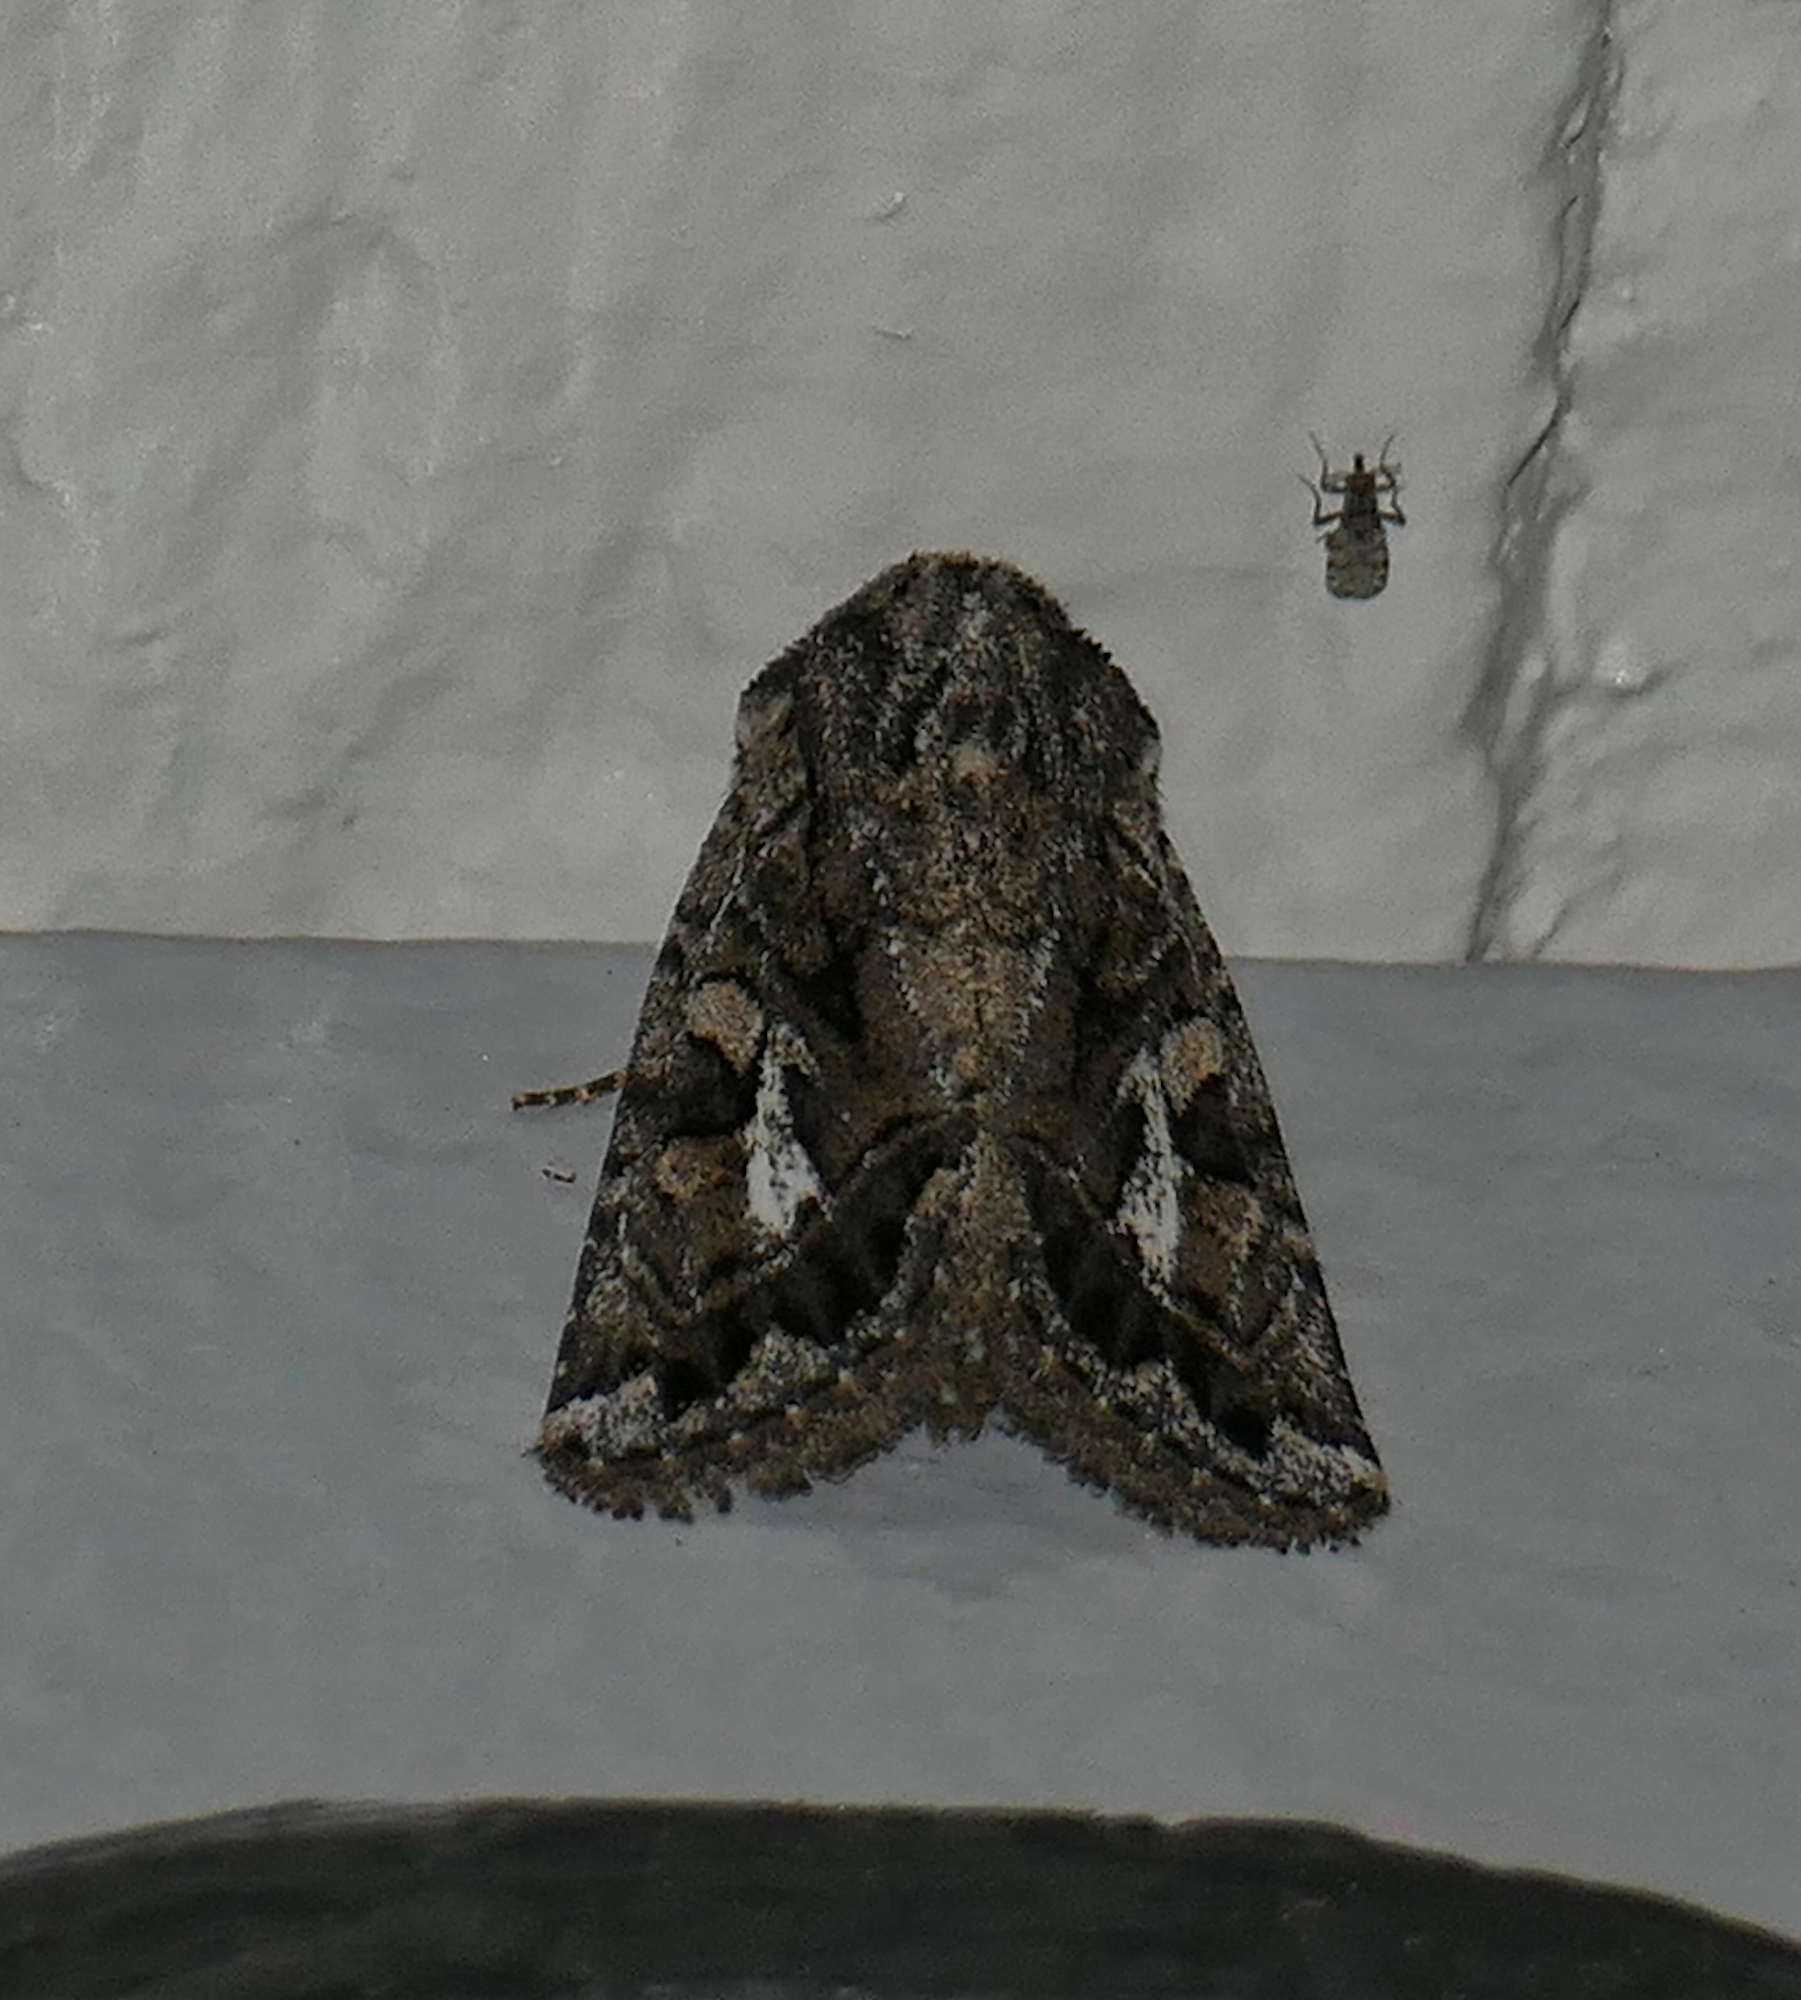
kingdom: Animalia
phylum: Arthropoda
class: Insecta
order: Lepidoptera
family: Noctuidae
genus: Ulolonche
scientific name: Ulolonche orbiculata
